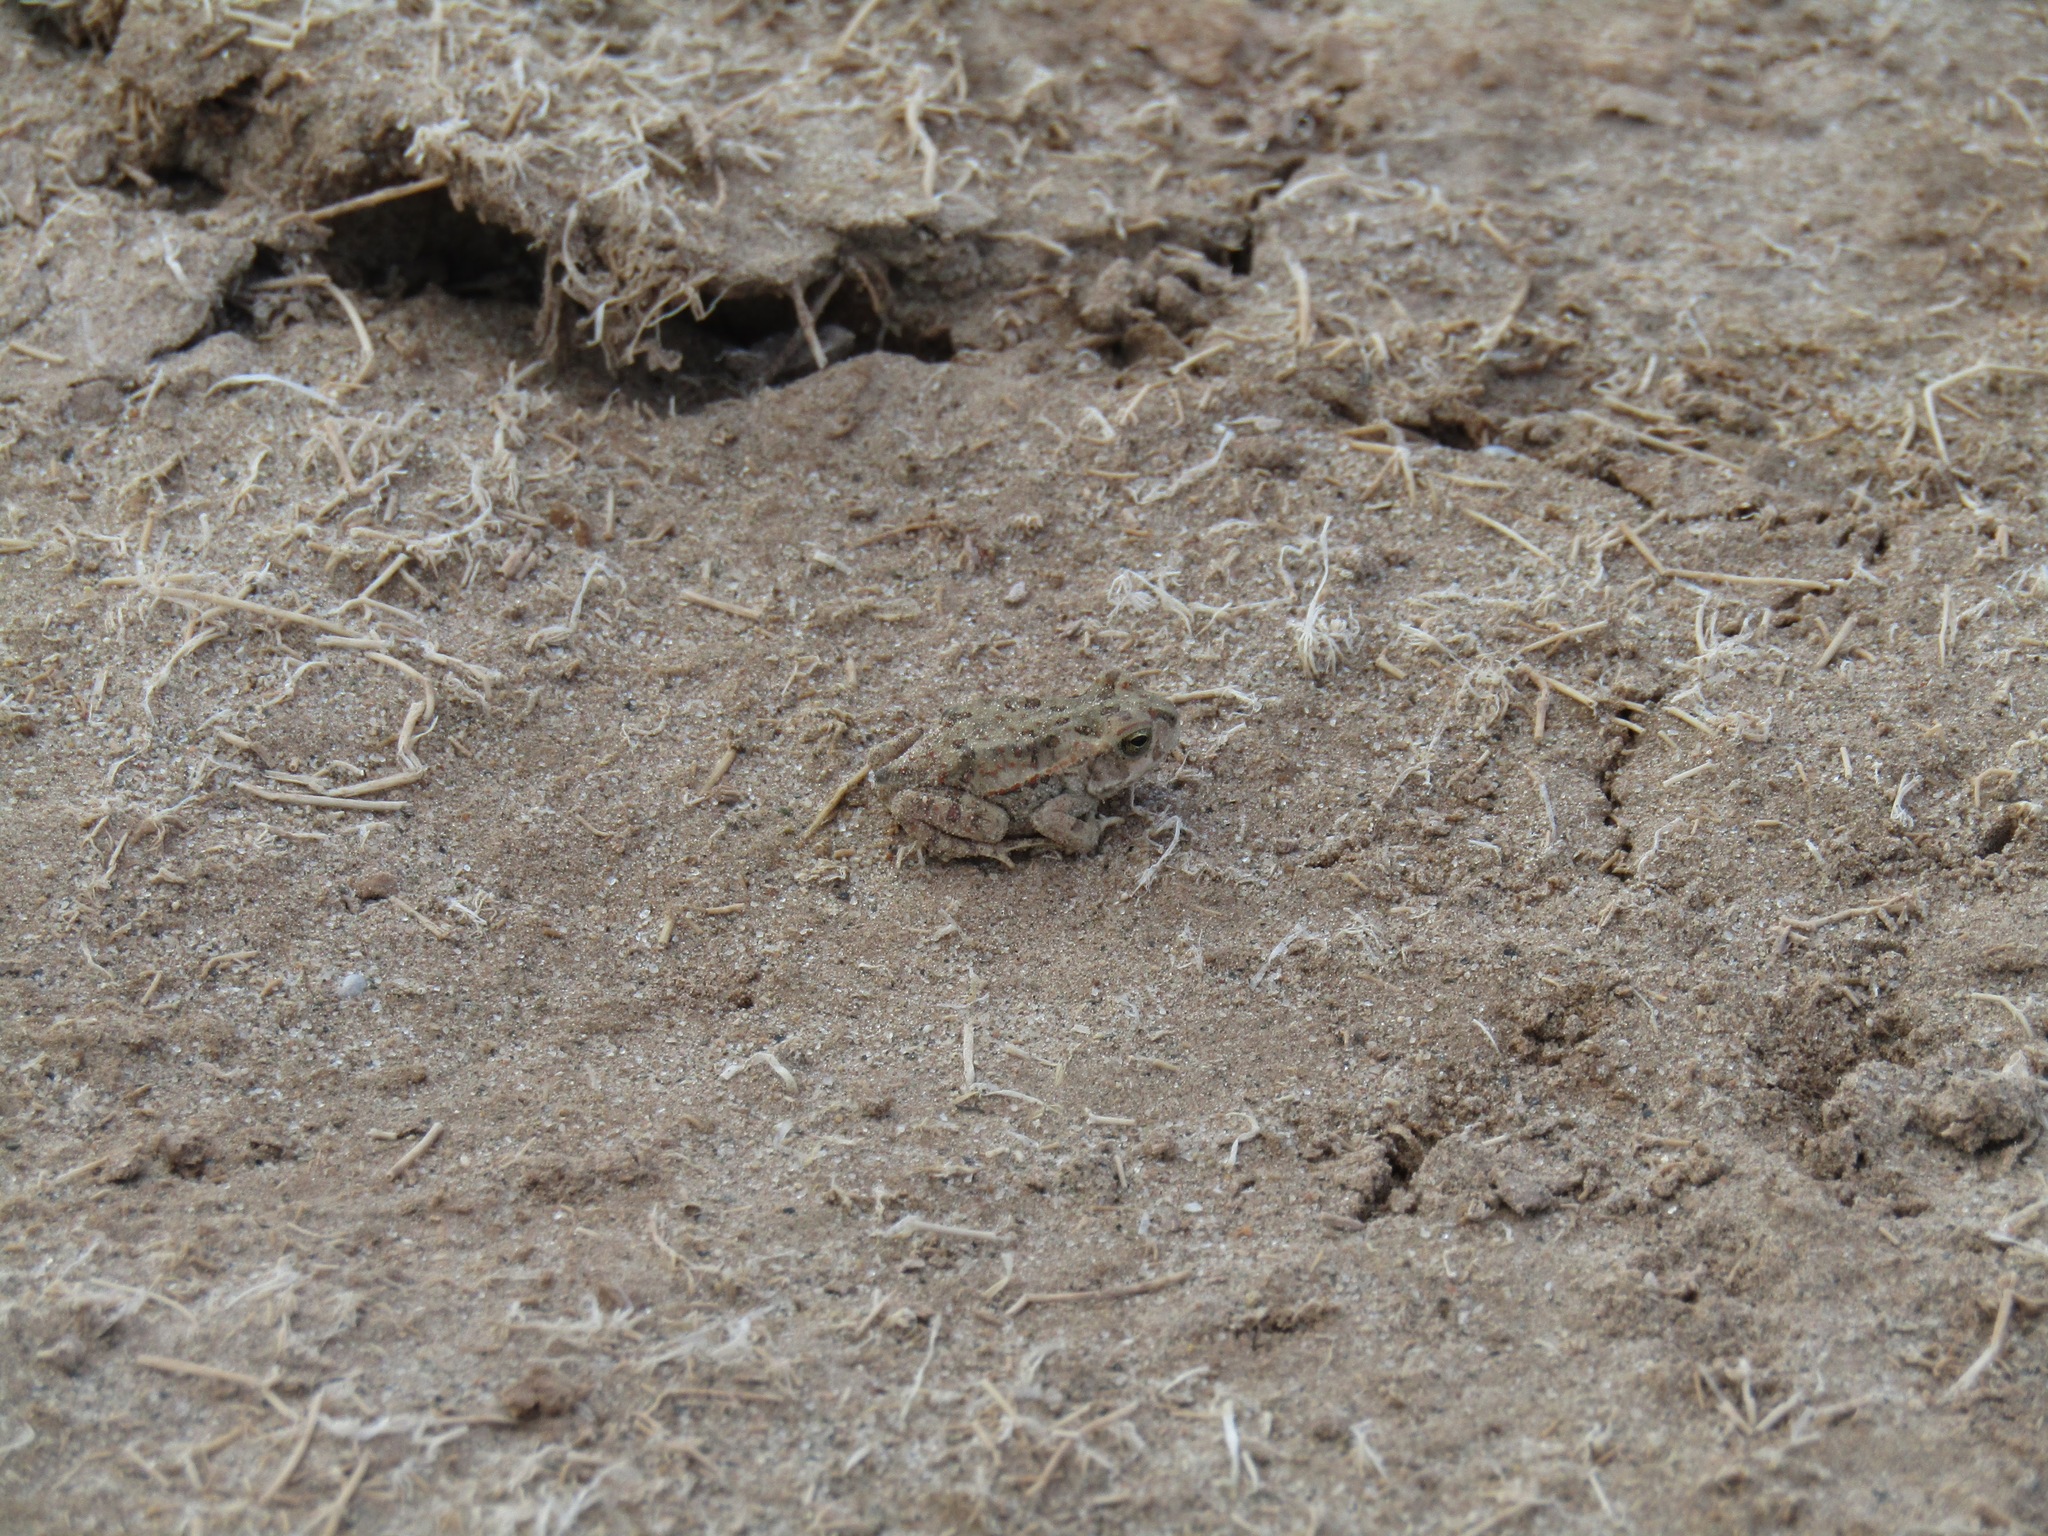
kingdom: Animalia
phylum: Chordata
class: Amphibia
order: Anura
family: Bufonidae
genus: Rhinella
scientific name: Rhinella arenarum
